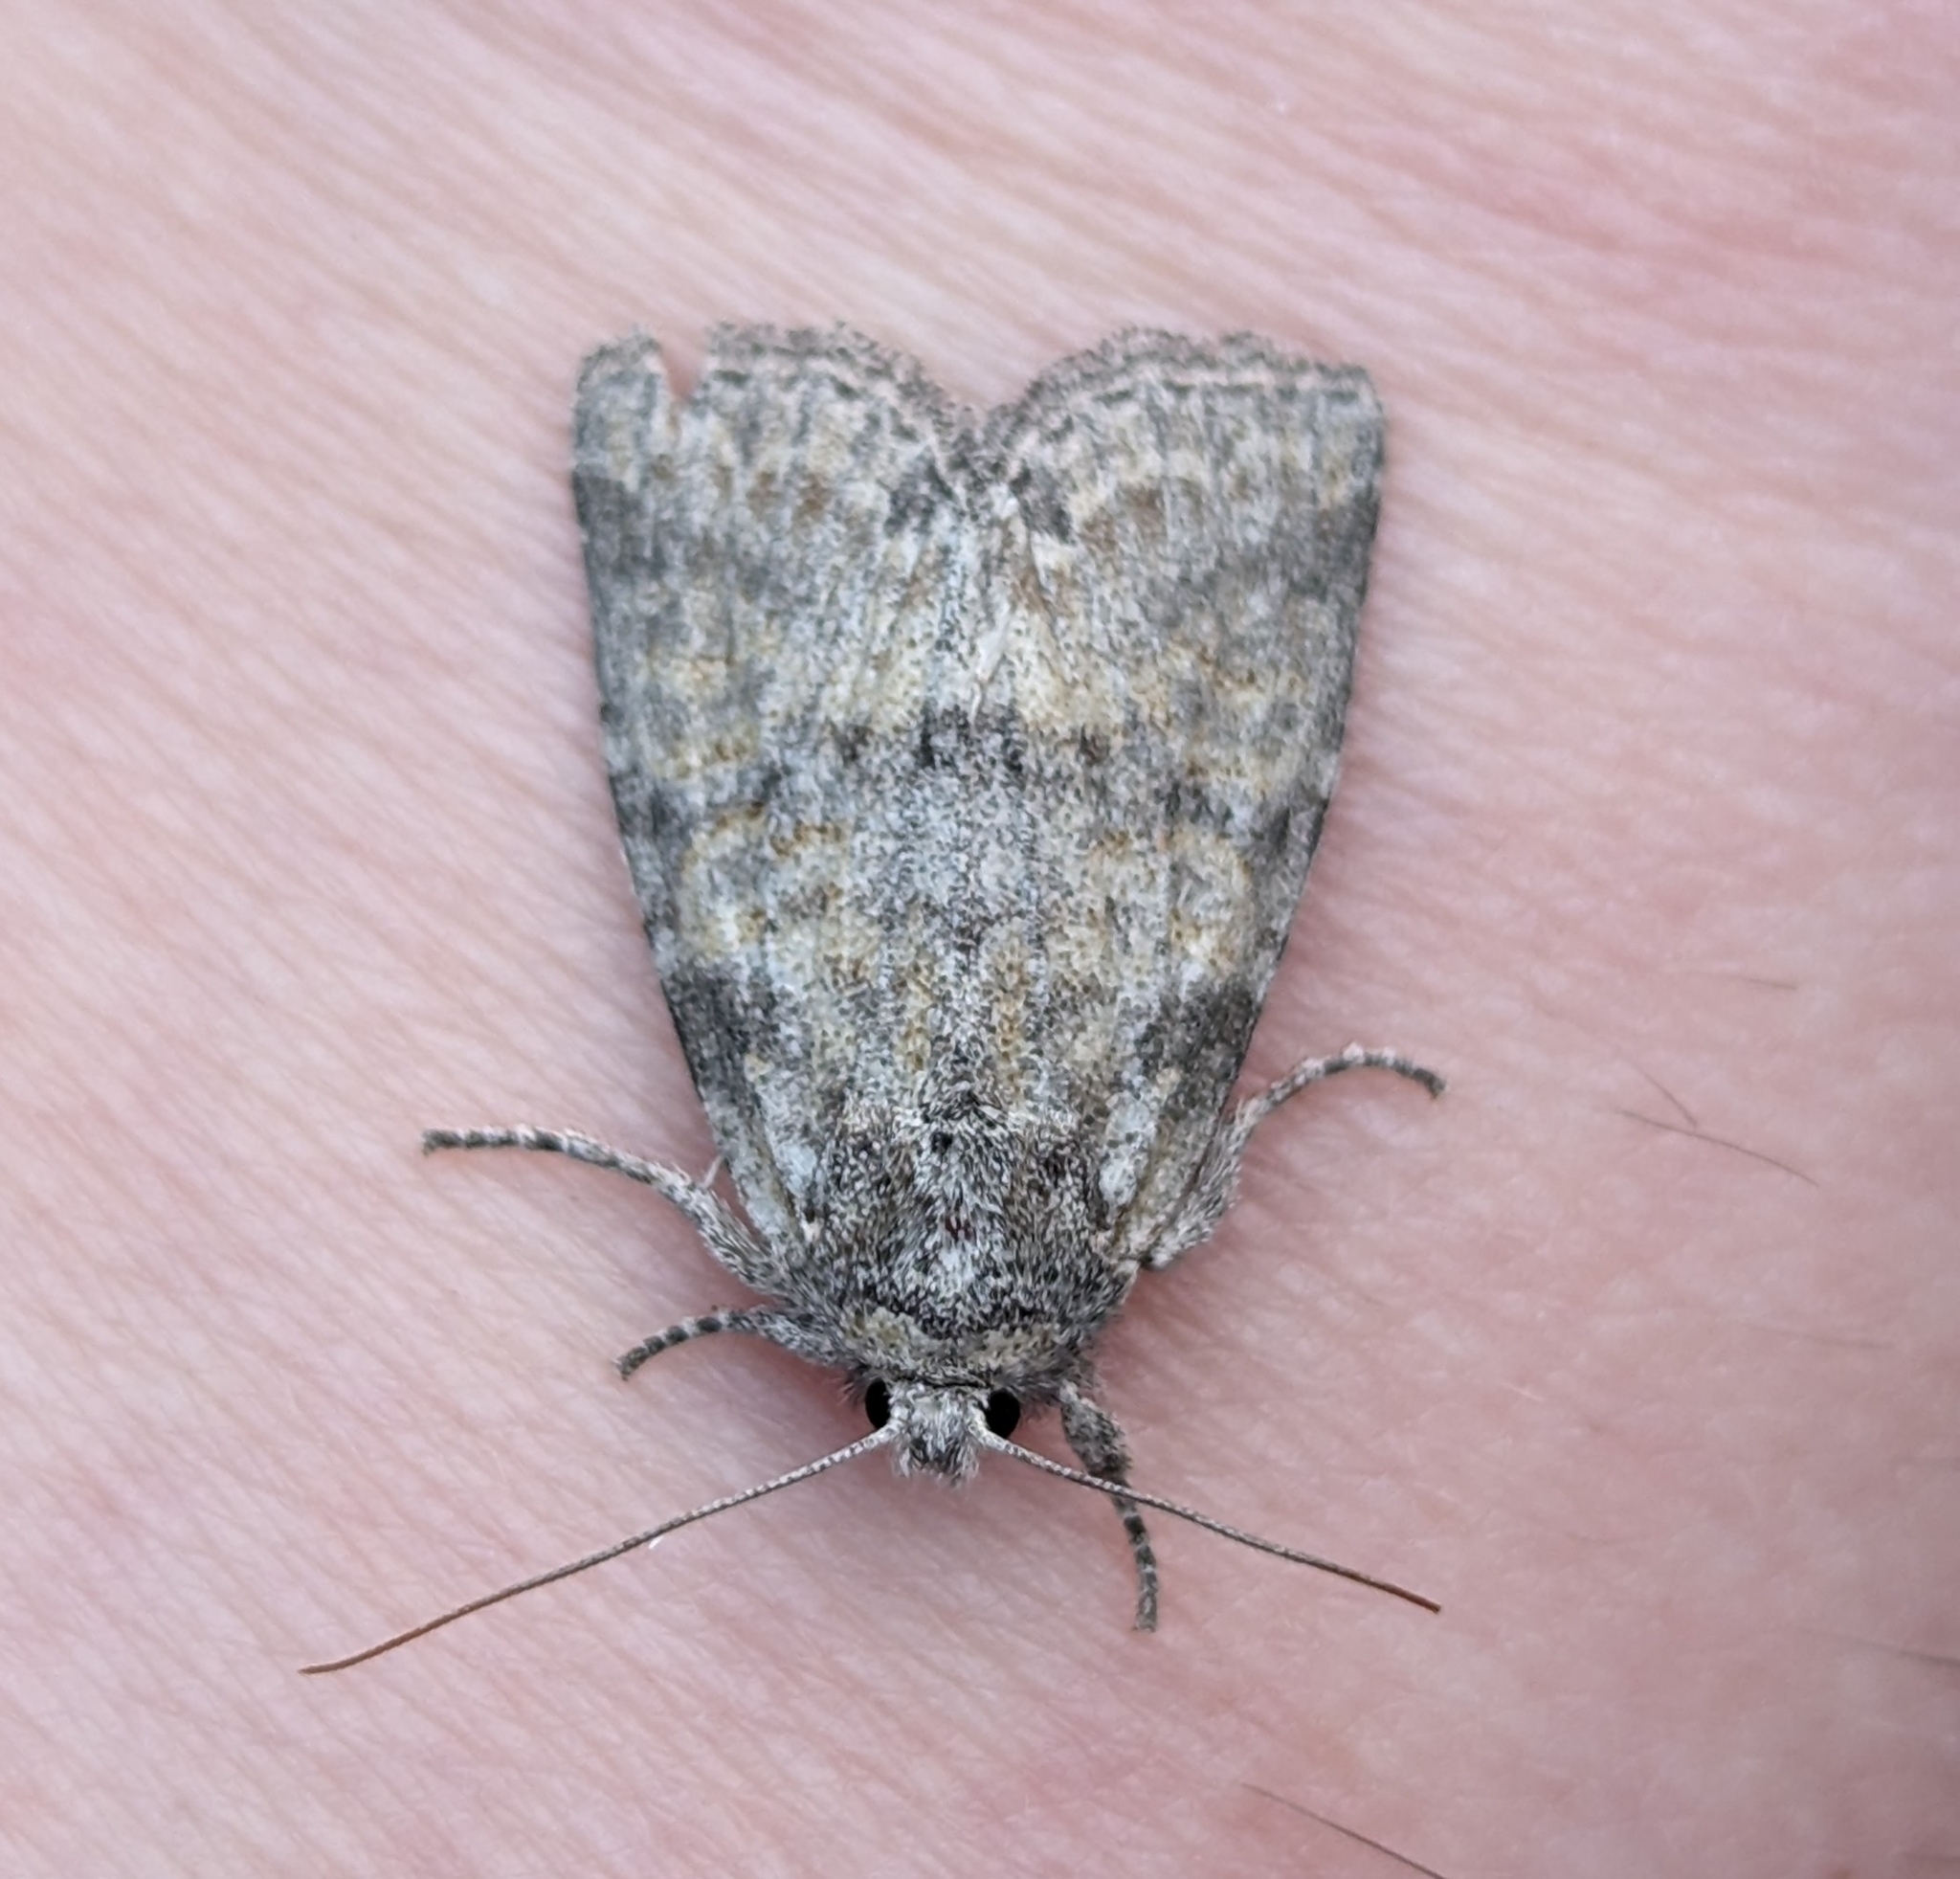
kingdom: Animalia
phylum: Arthropoda
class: Insecta
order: Lepidoptera
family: Noctuidae
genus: Brachylomia
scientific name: Brachylomia populi
